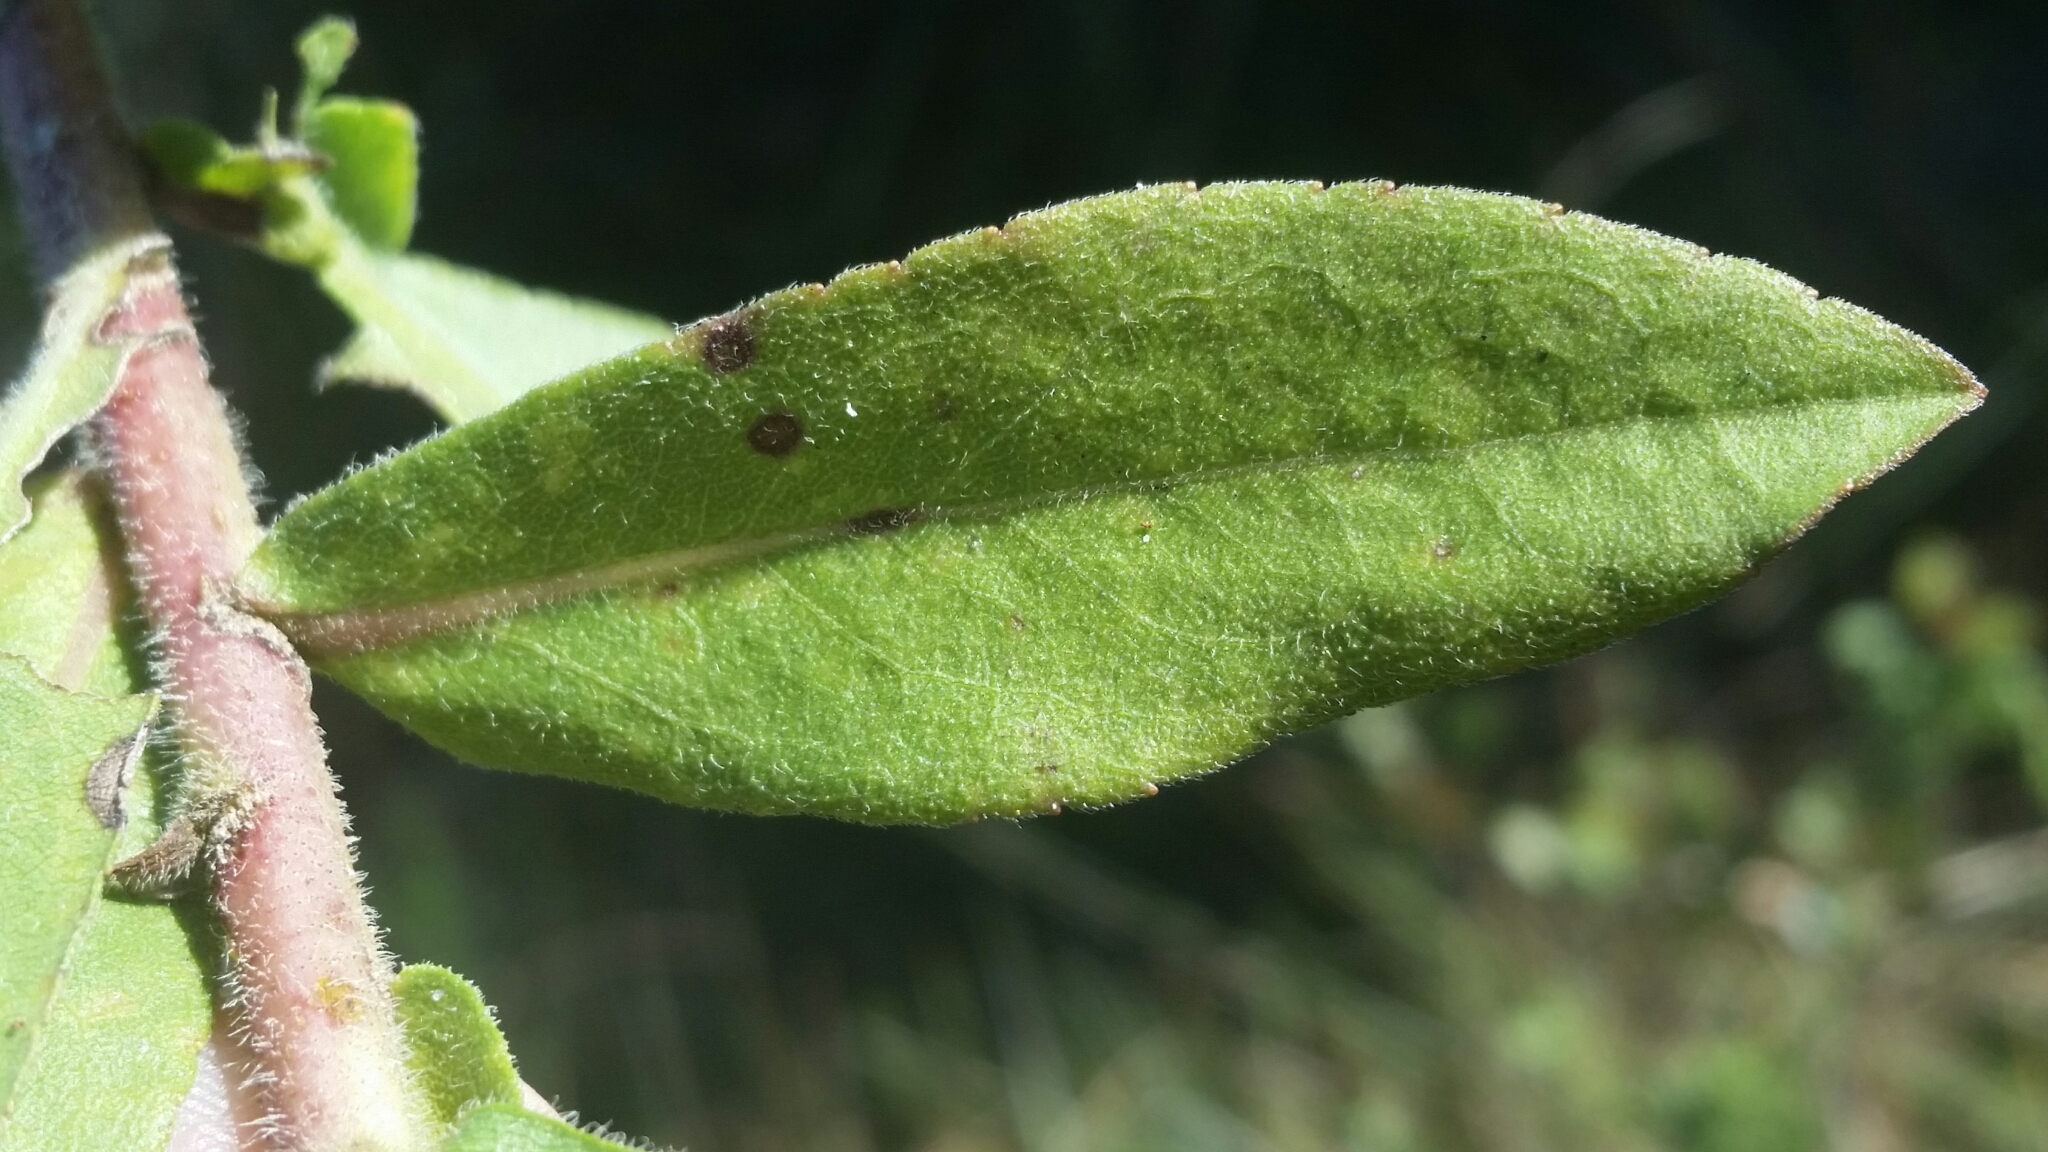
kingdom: Plantae
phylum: Tracheophyta
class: Magnoliopsida
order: Asterales
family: Asteraceae
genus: Solidago
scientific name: Solidago fistulosa
